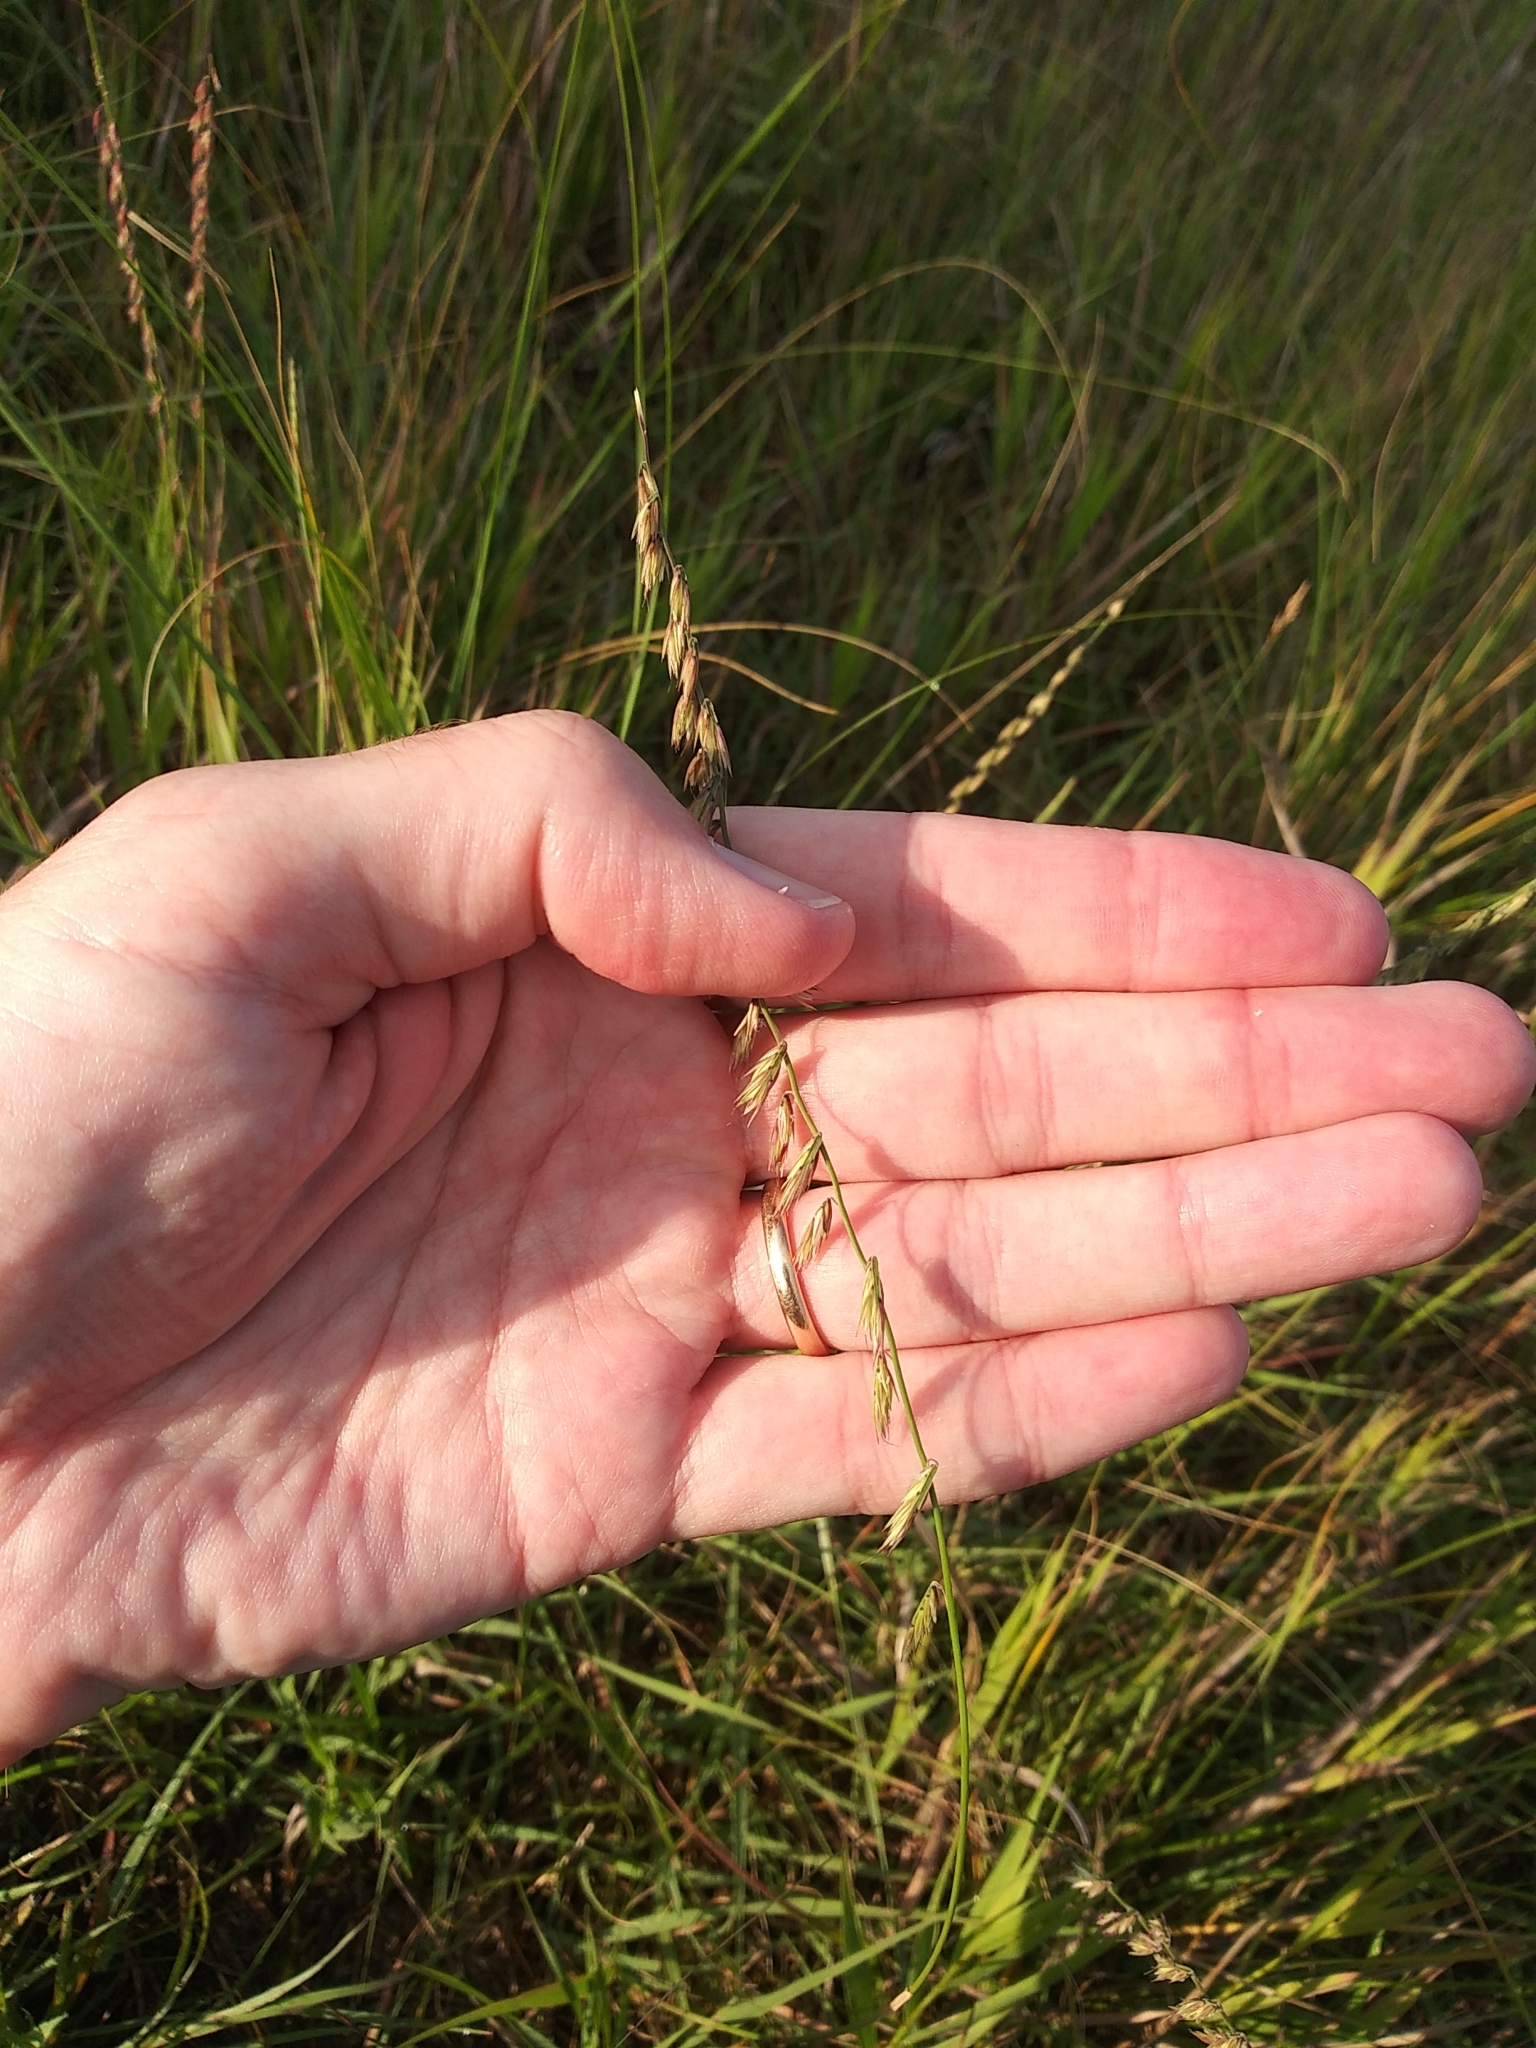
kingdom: Plantae
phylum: Tracheophyta
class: Liliopsida
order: Poales
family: Poaceae
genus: Bouteloua
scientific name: Bouteloua curtipendula
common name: Side-oats grama
